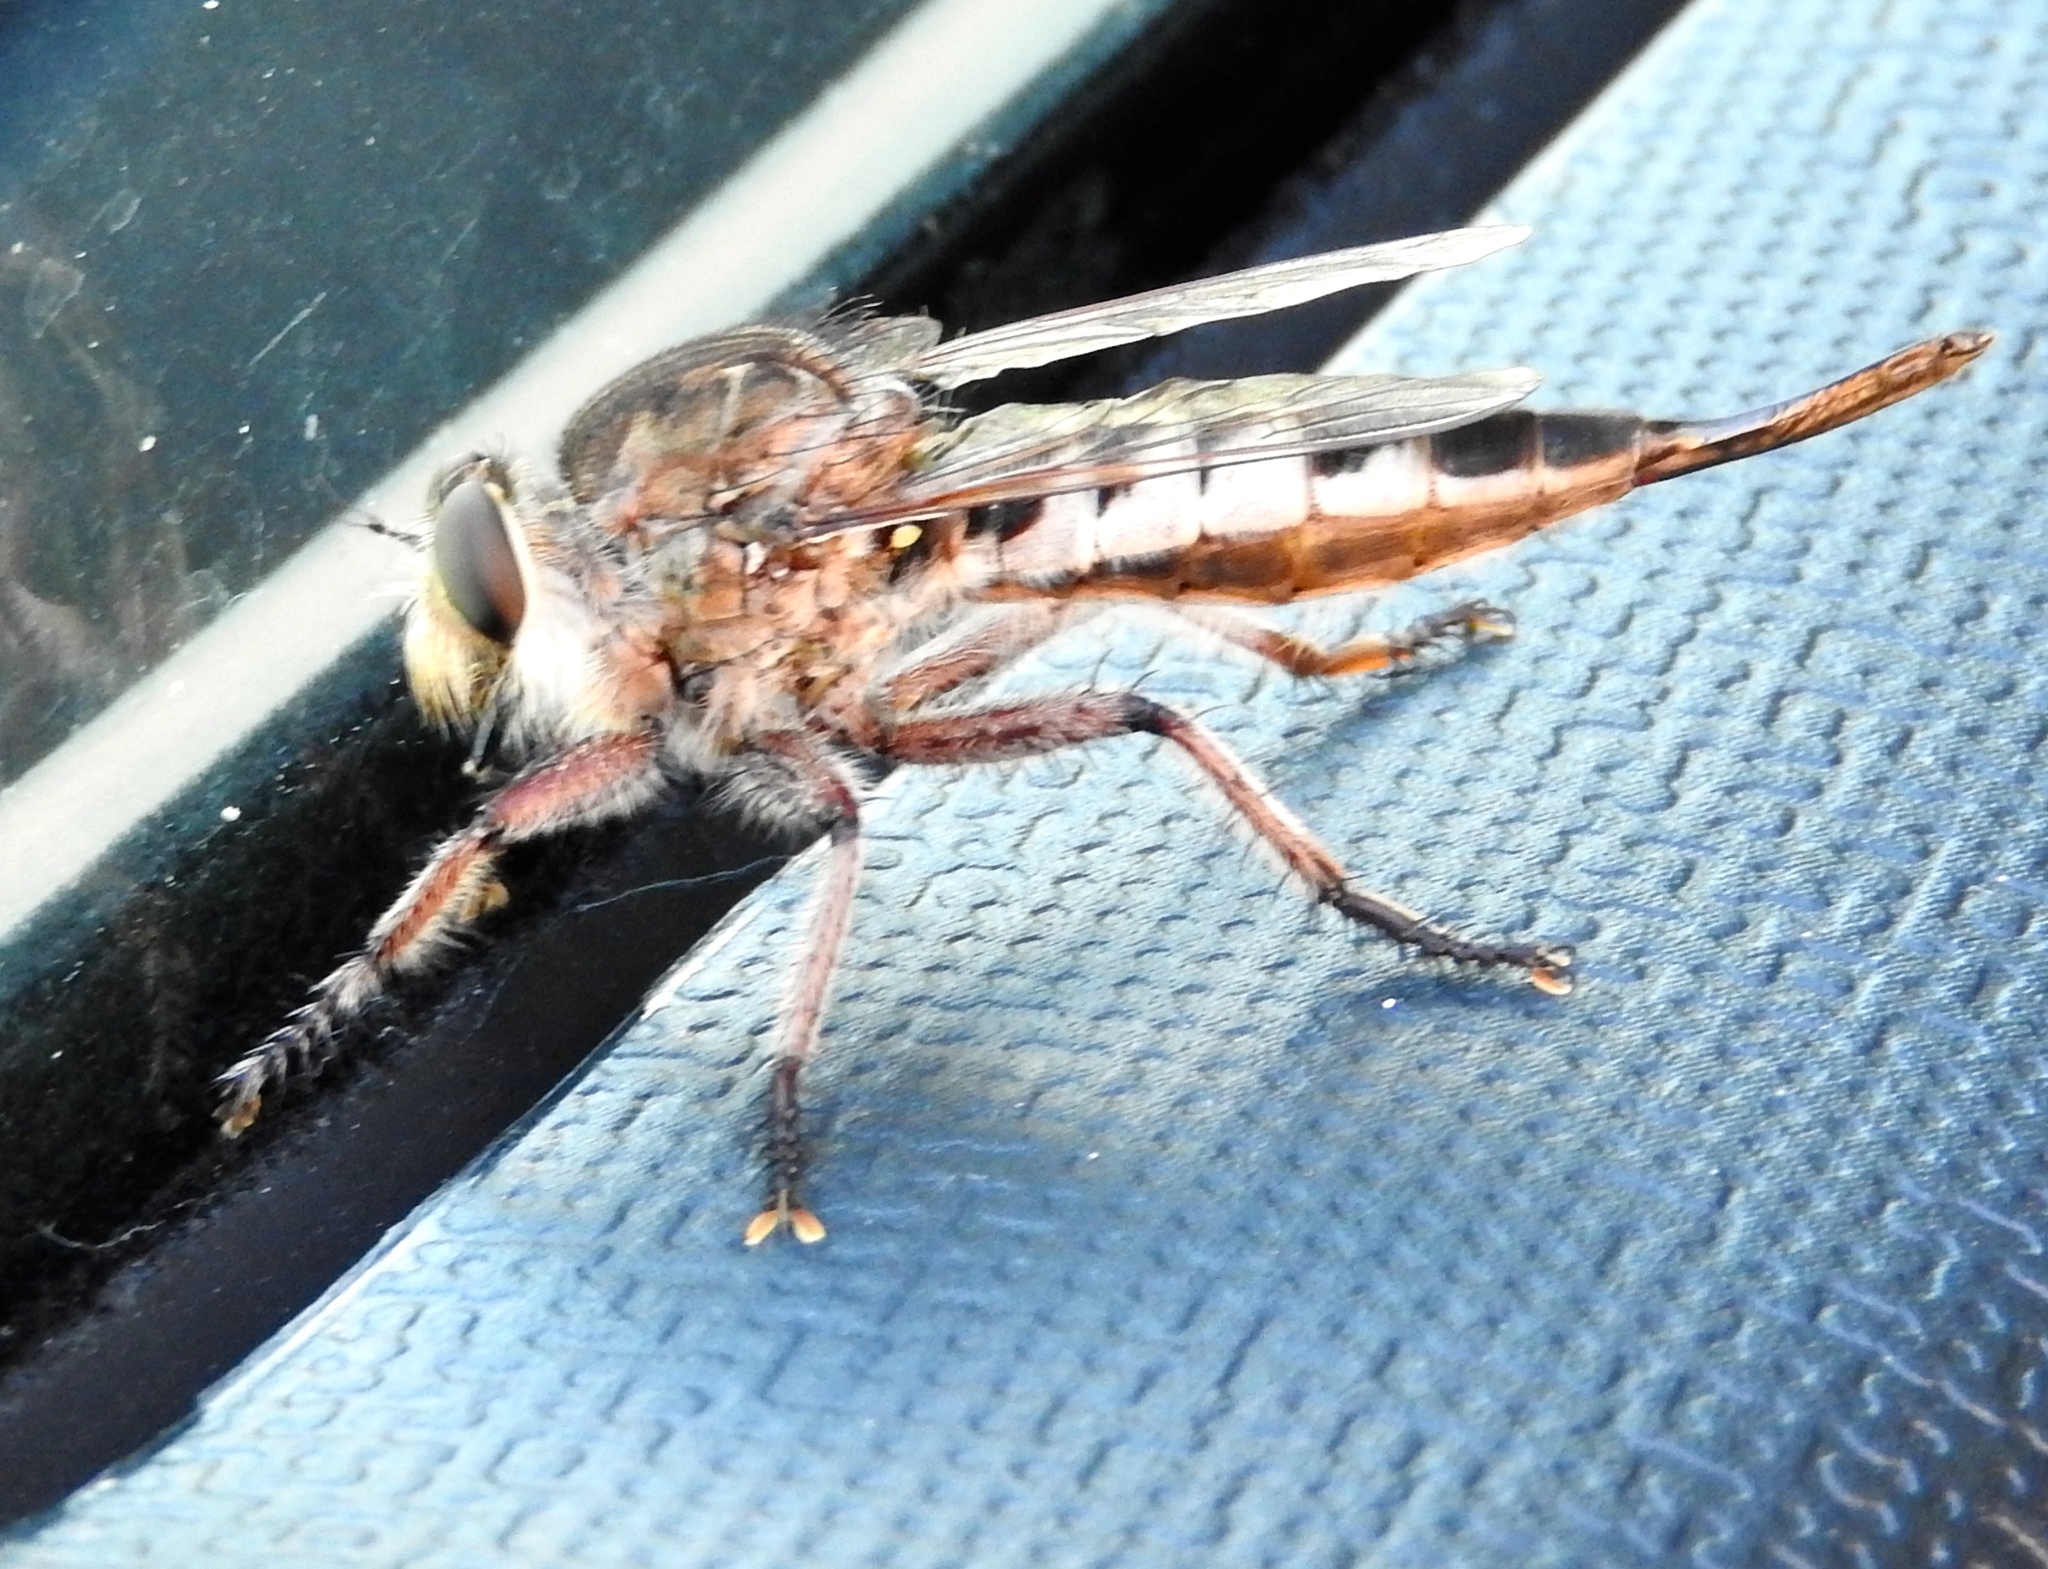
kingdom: Animalia
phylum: Arthropoda
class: Insecta
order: Diptera
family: Asilidae
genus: Efferia
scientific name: Efferia
